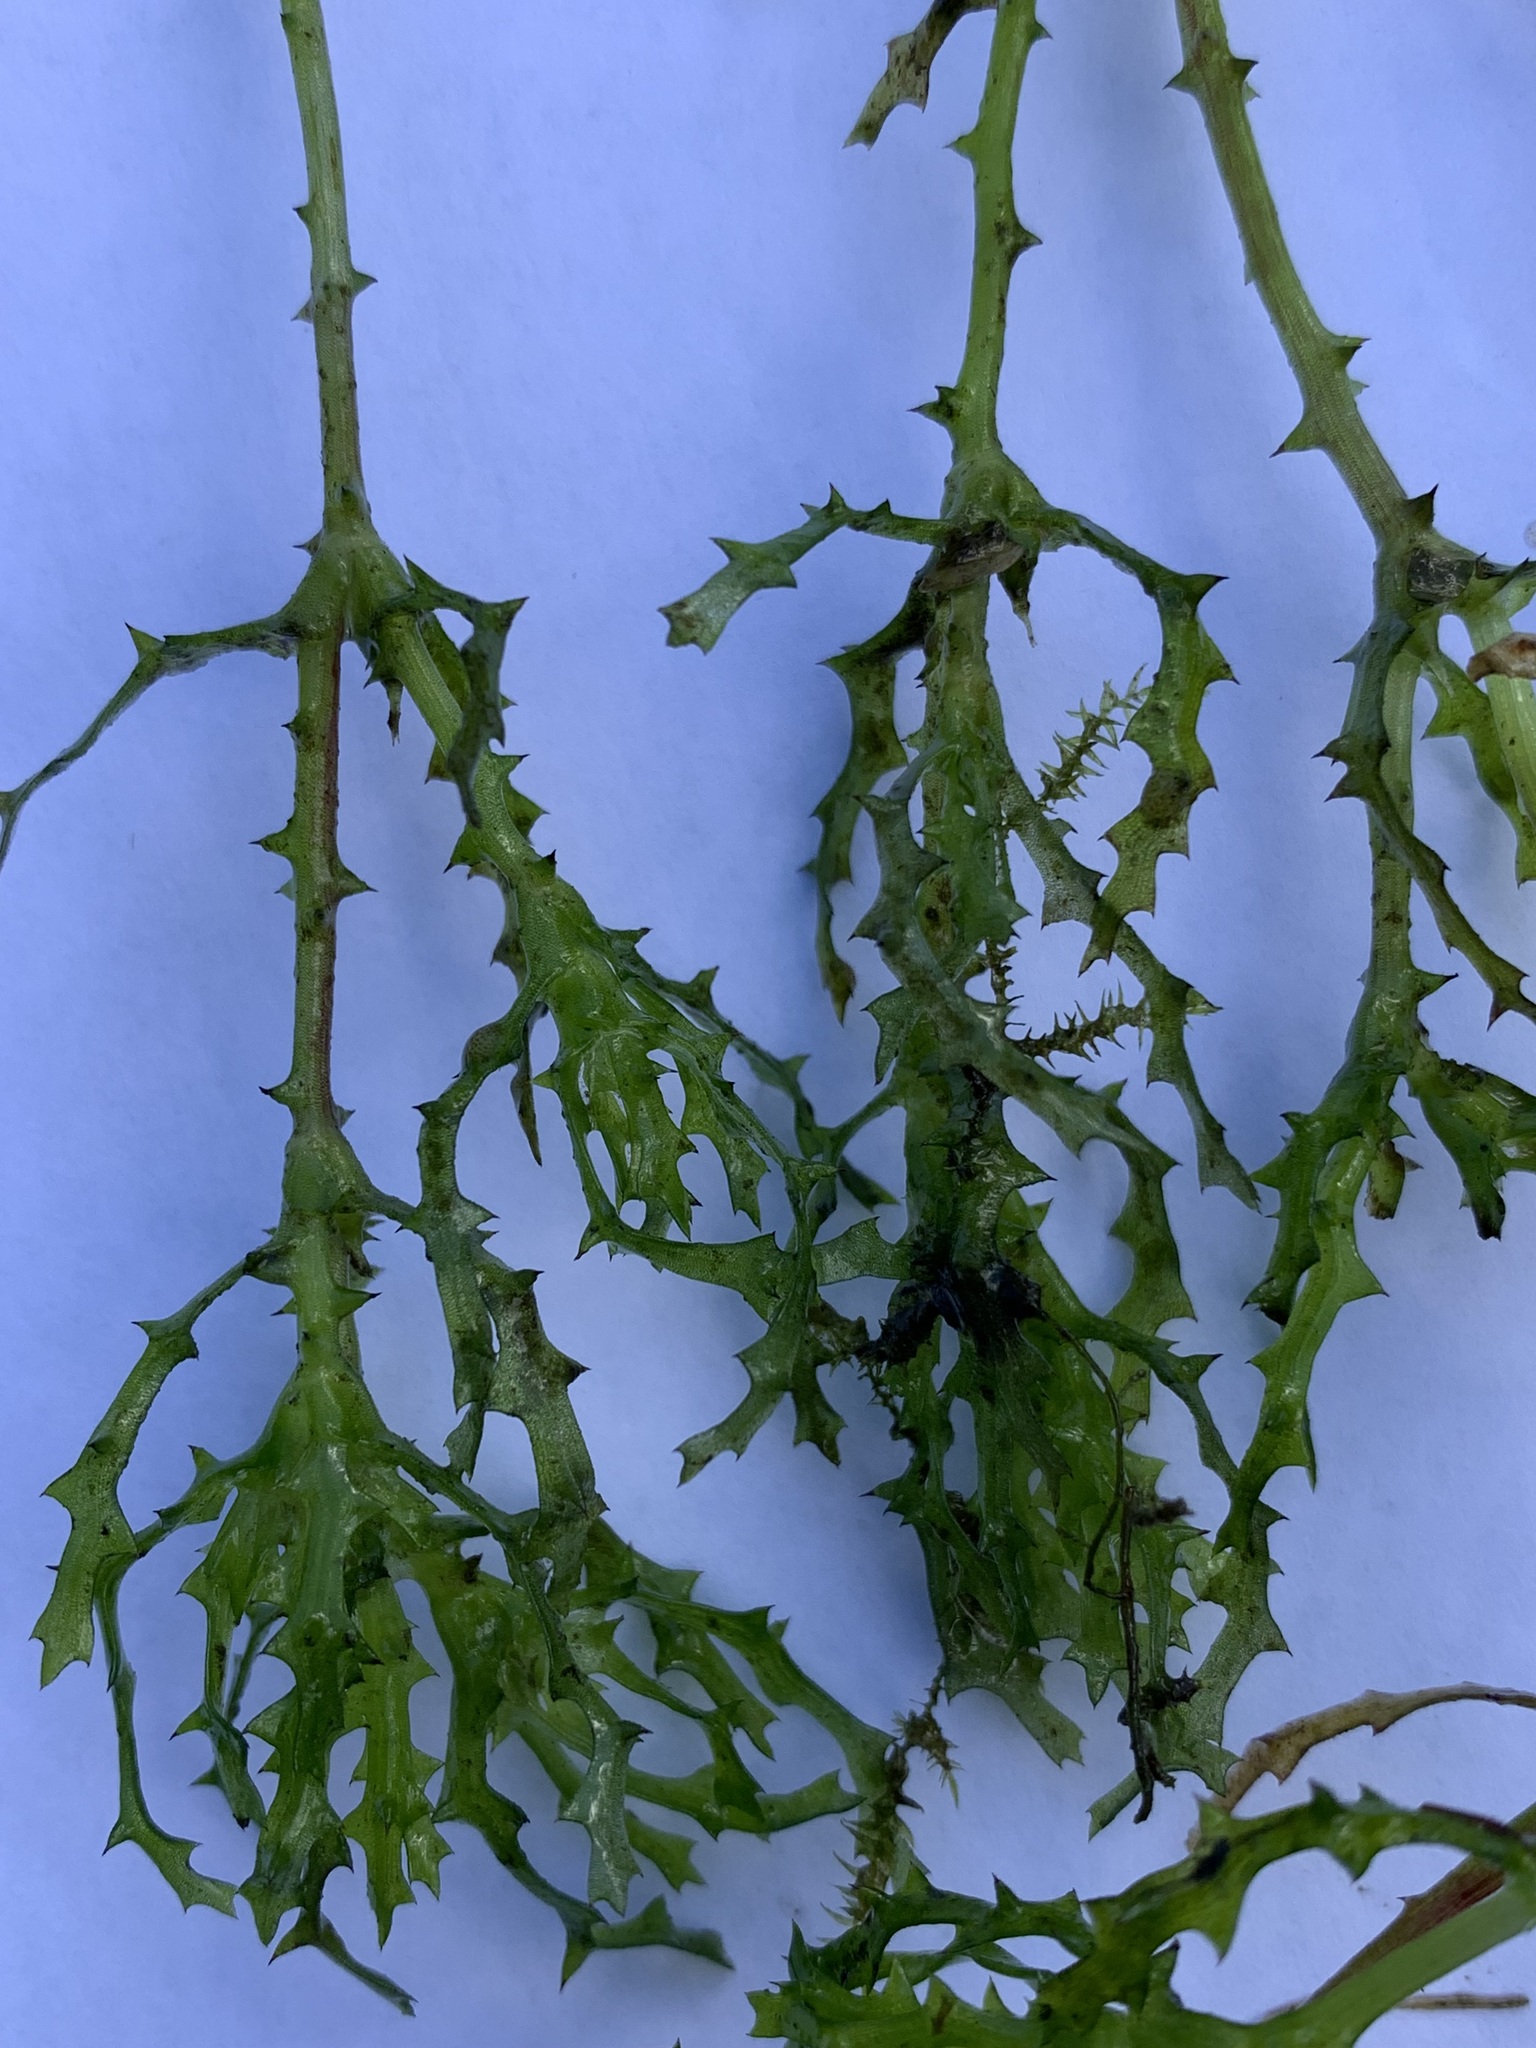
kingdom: Plantae
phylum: Tracheophyta
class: Liliopsida
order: Alismatales
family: Hydrocharitaceae
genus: Najas
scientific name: Najas major
